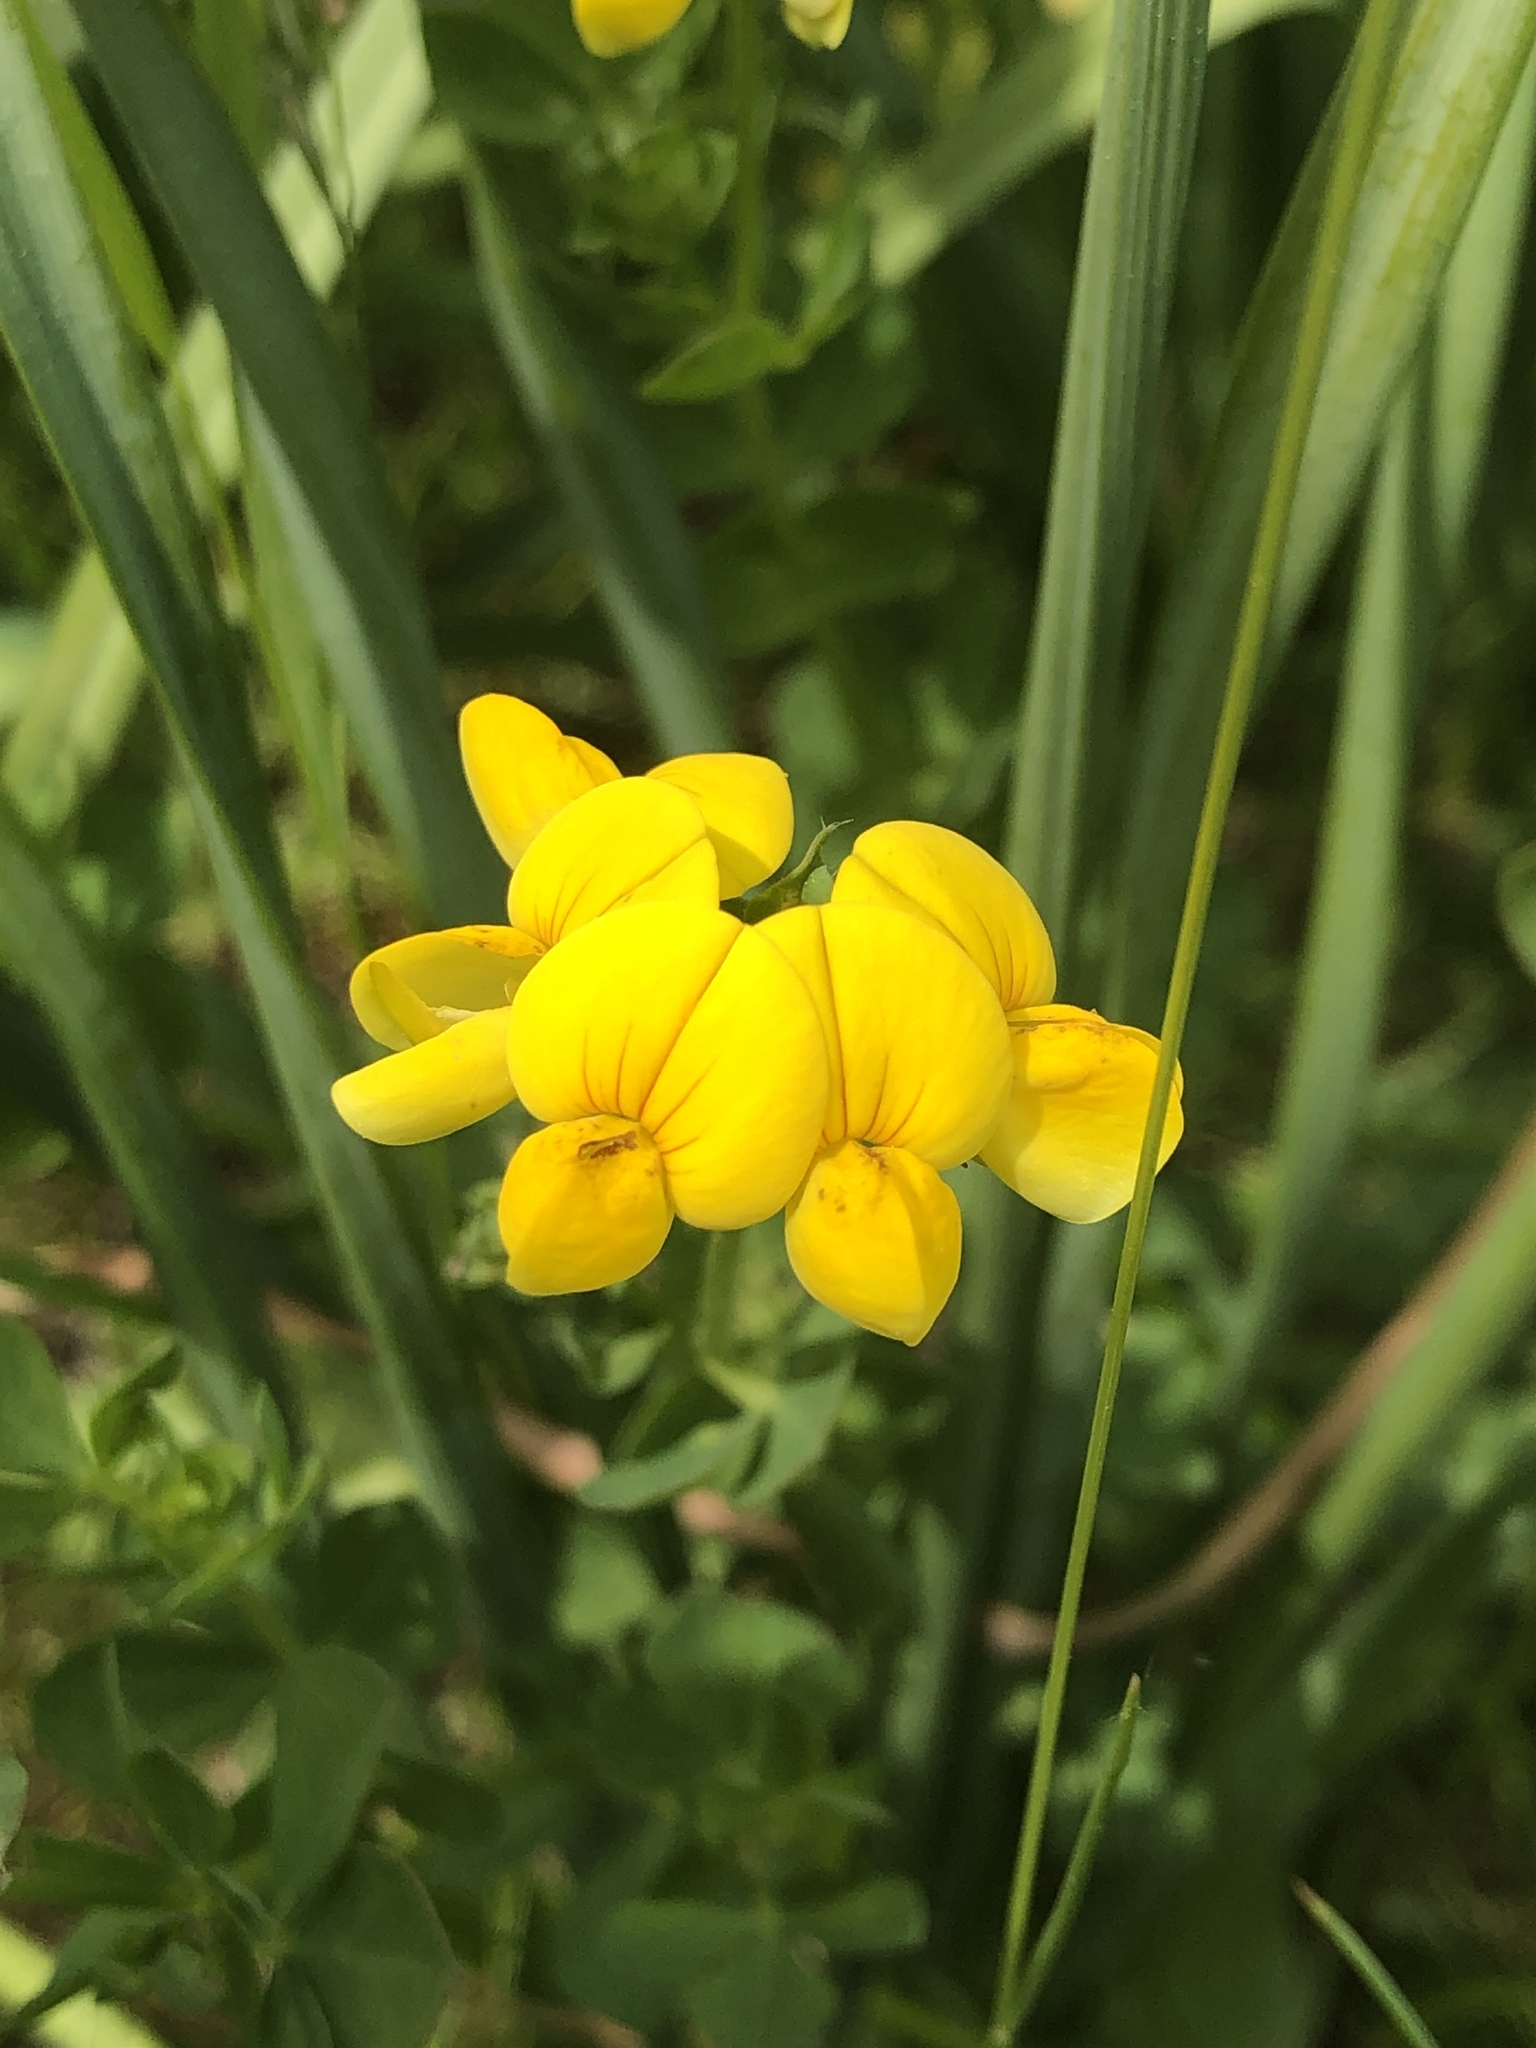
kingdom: Plantae
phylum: Tracheophyta
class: Magnoliopsida
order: Fabales
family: Fabaceae
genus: Lotus
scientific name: Lotus corniculatus
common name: Common bird's-foot-trefoil
